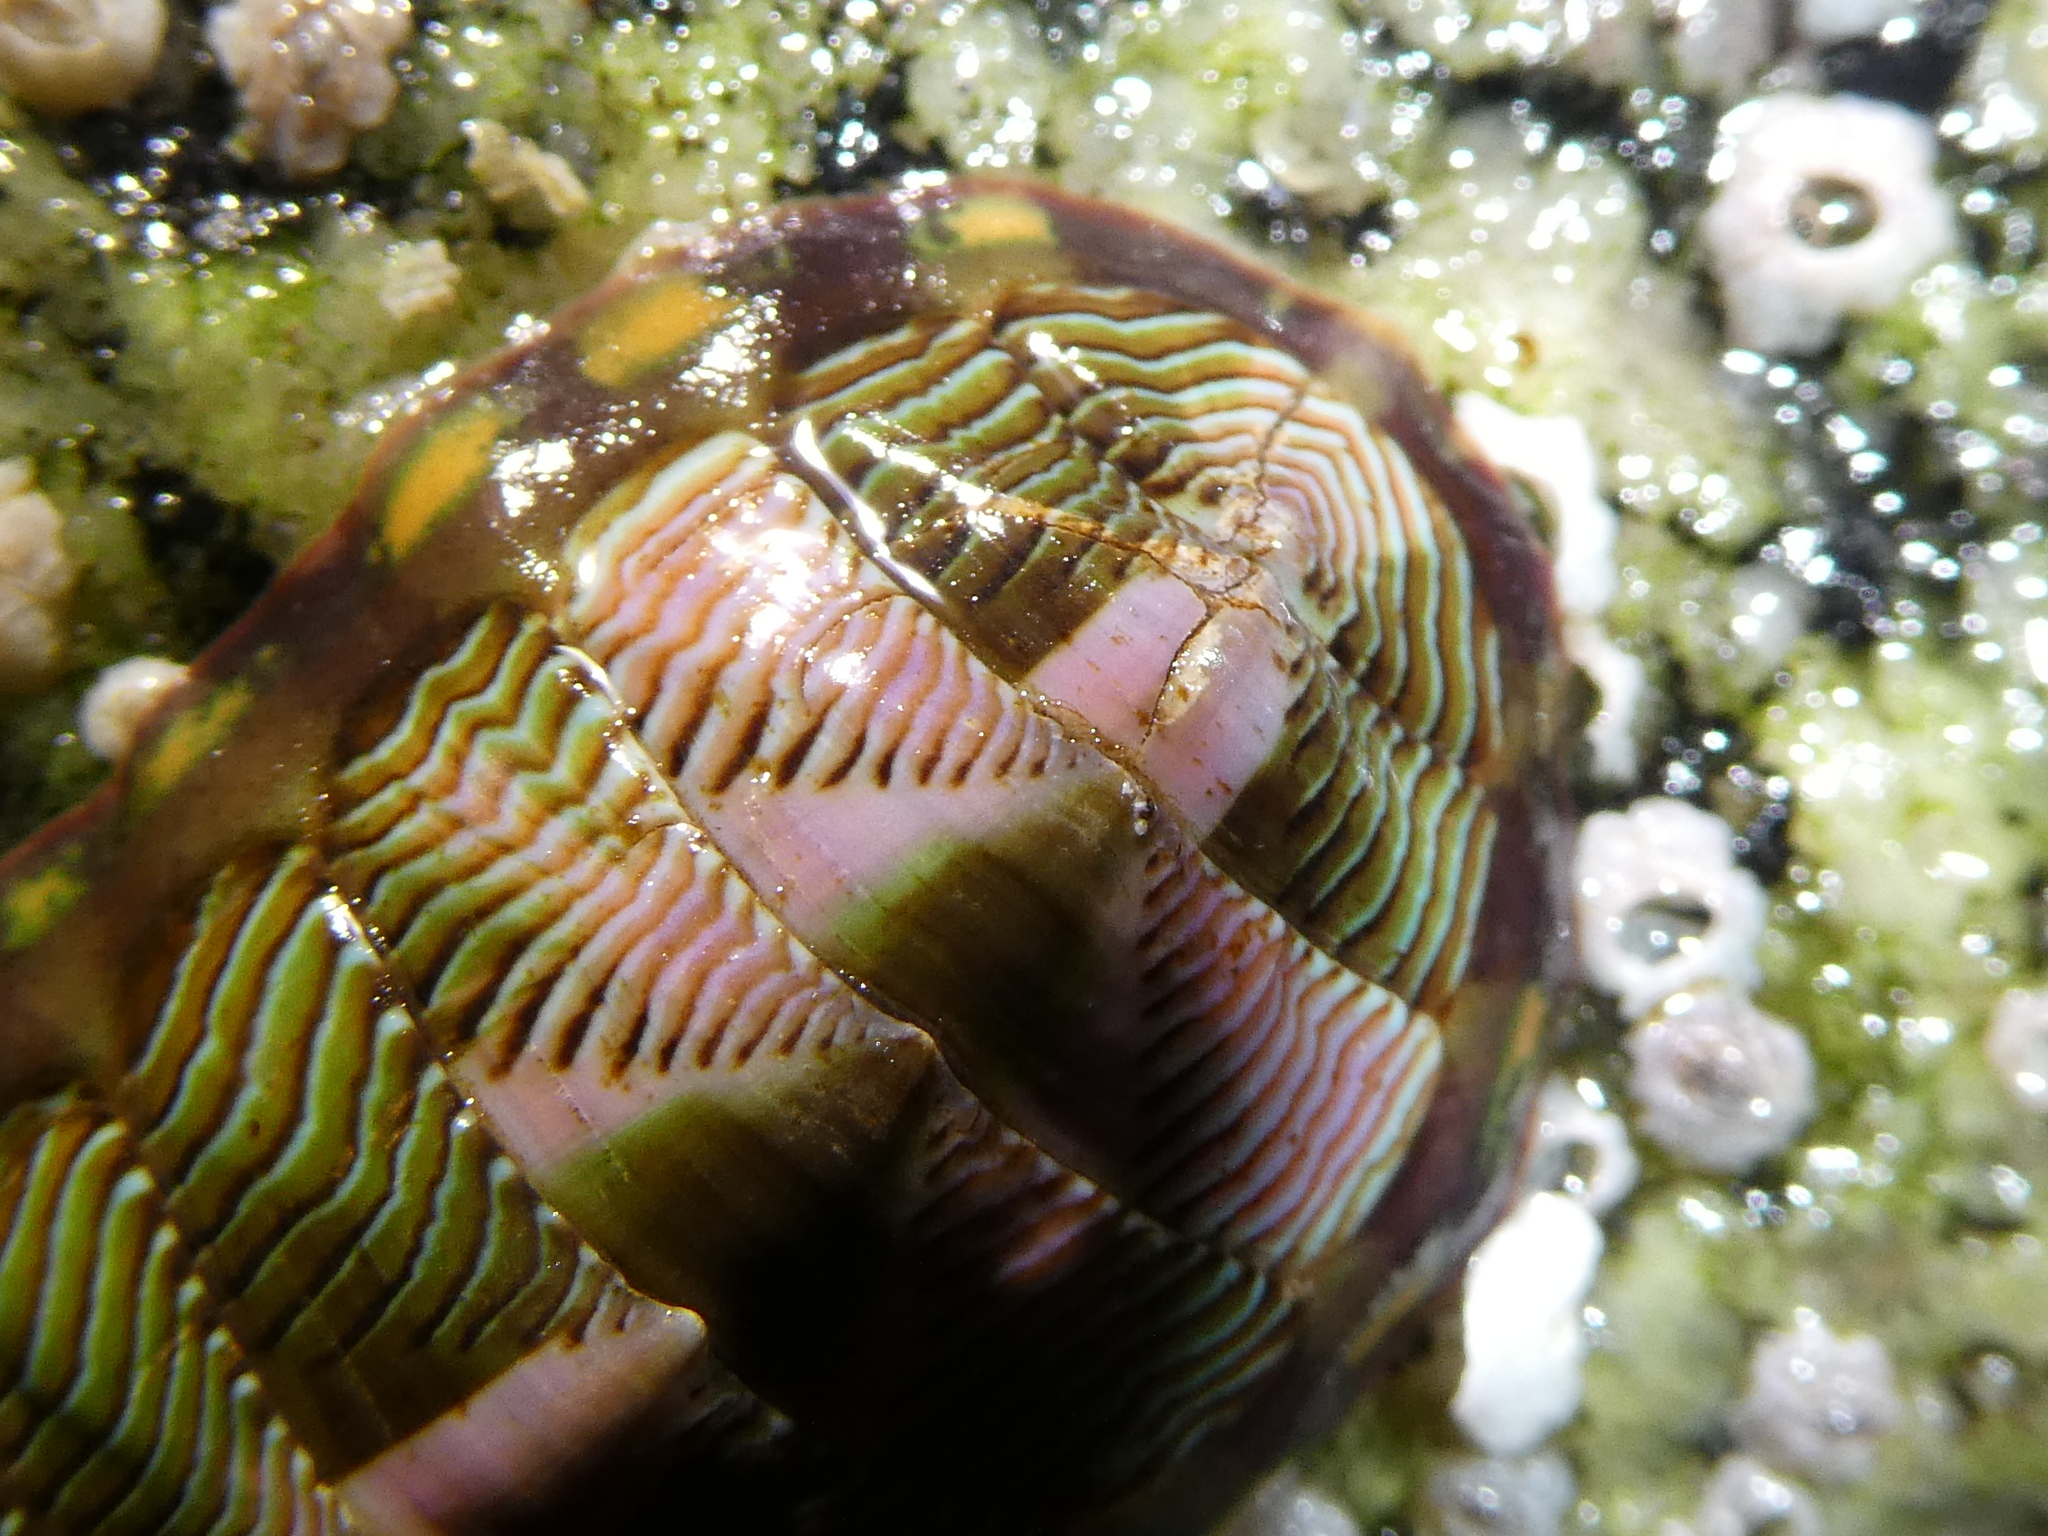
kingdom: Animalia
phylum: Mollusca
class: Polyplacophora
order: Chitonida
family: Tonicellidae
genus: Tonicella
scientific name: Tonicella lineata
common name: Lined chiton
